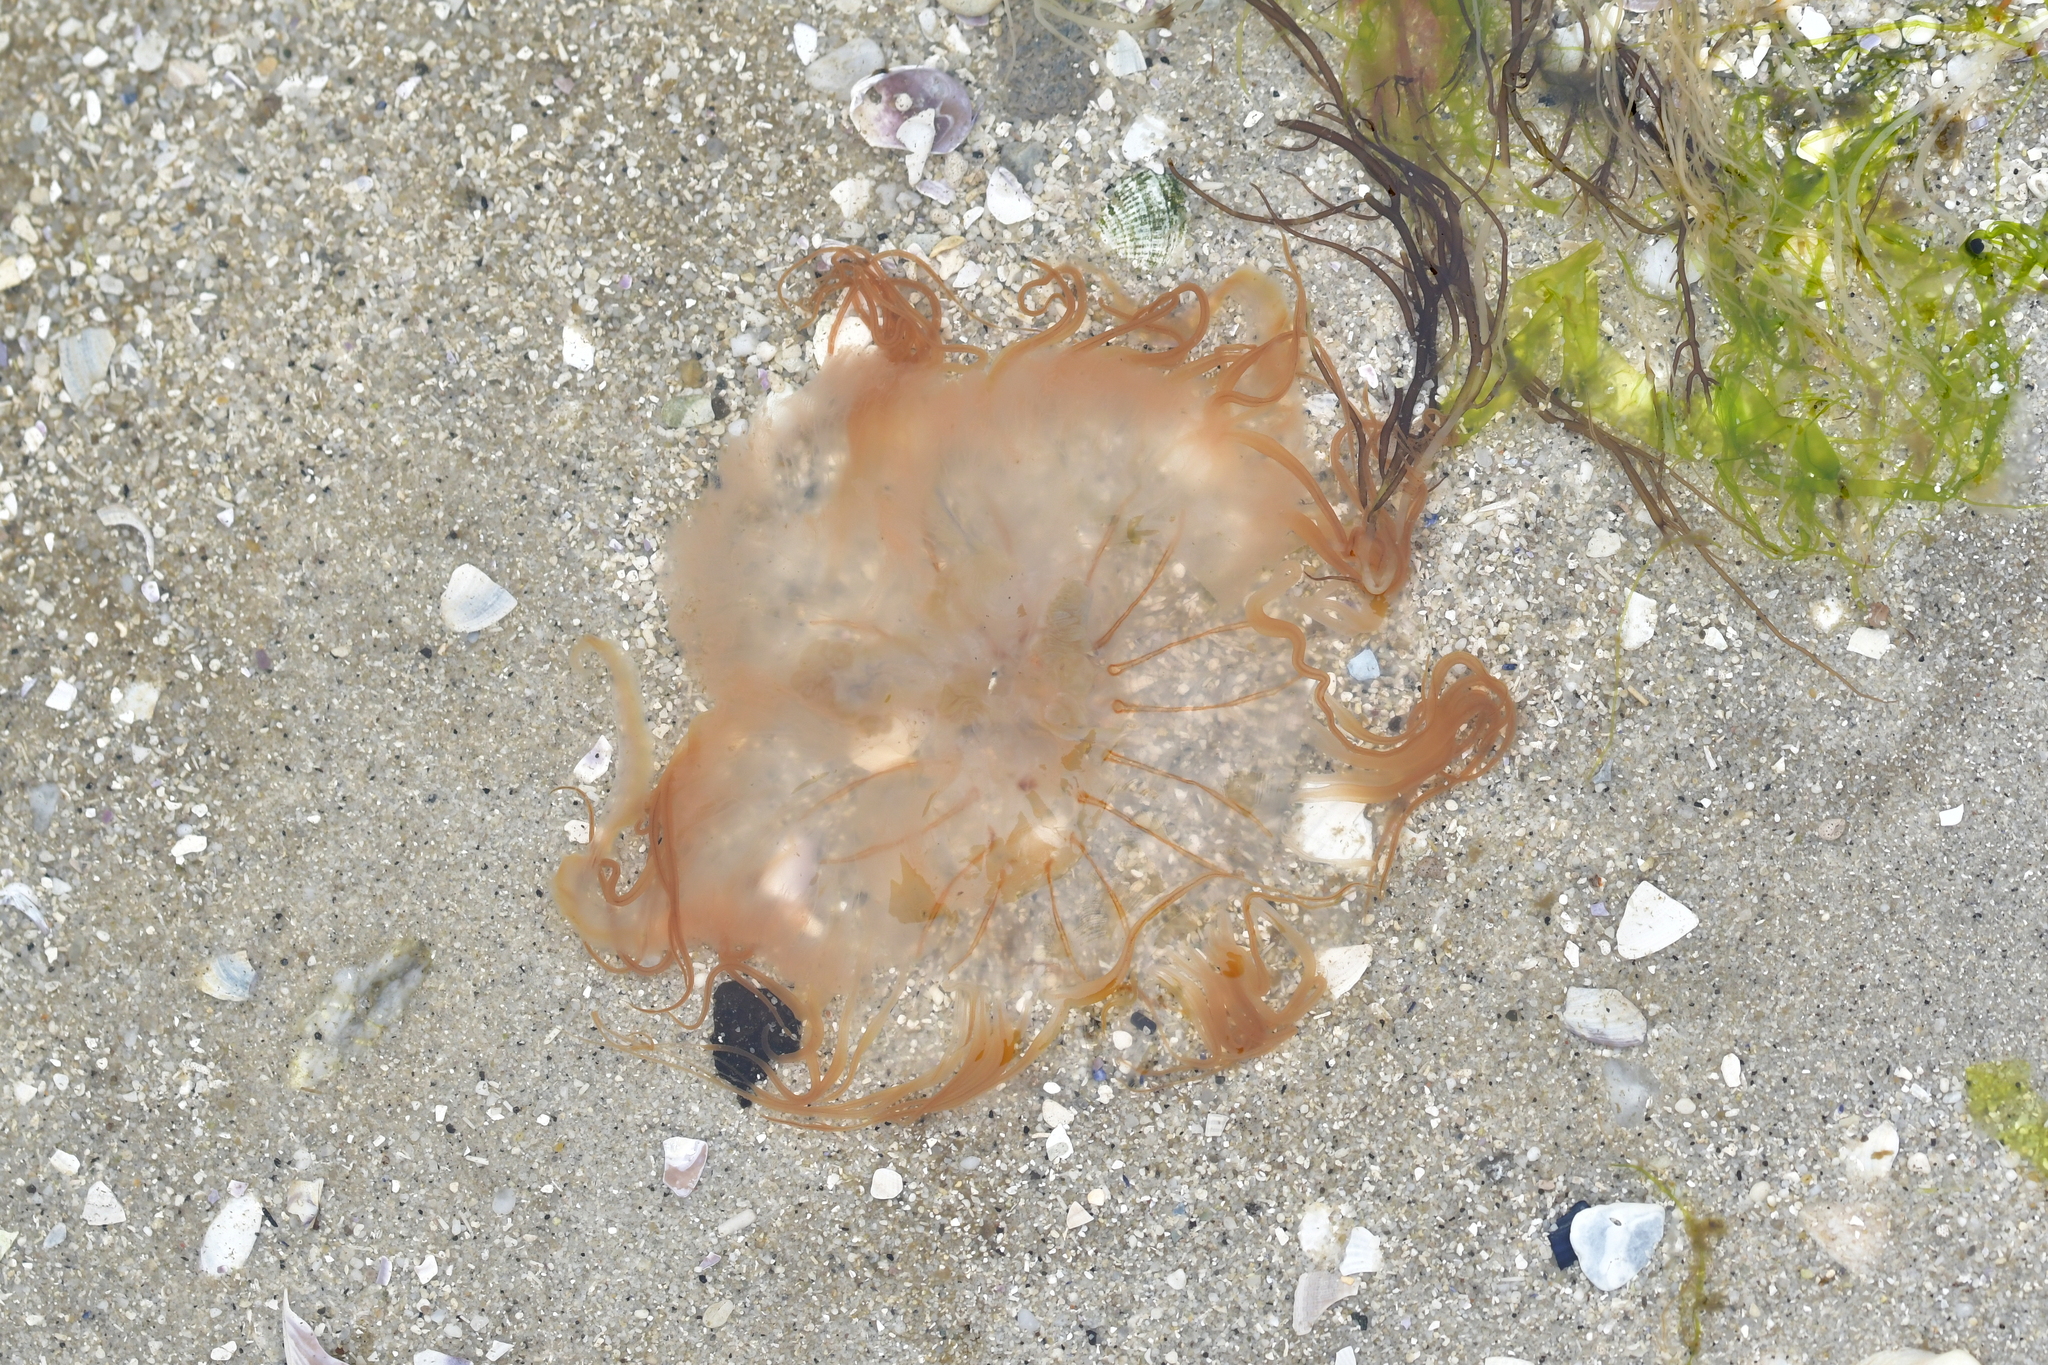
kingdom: Animalia
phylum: Cnidaria
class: Scyphozoa
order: Semaeostomeae
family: Cyaneidae
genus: Desmonema
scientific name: Desmonema gaudichaudi
